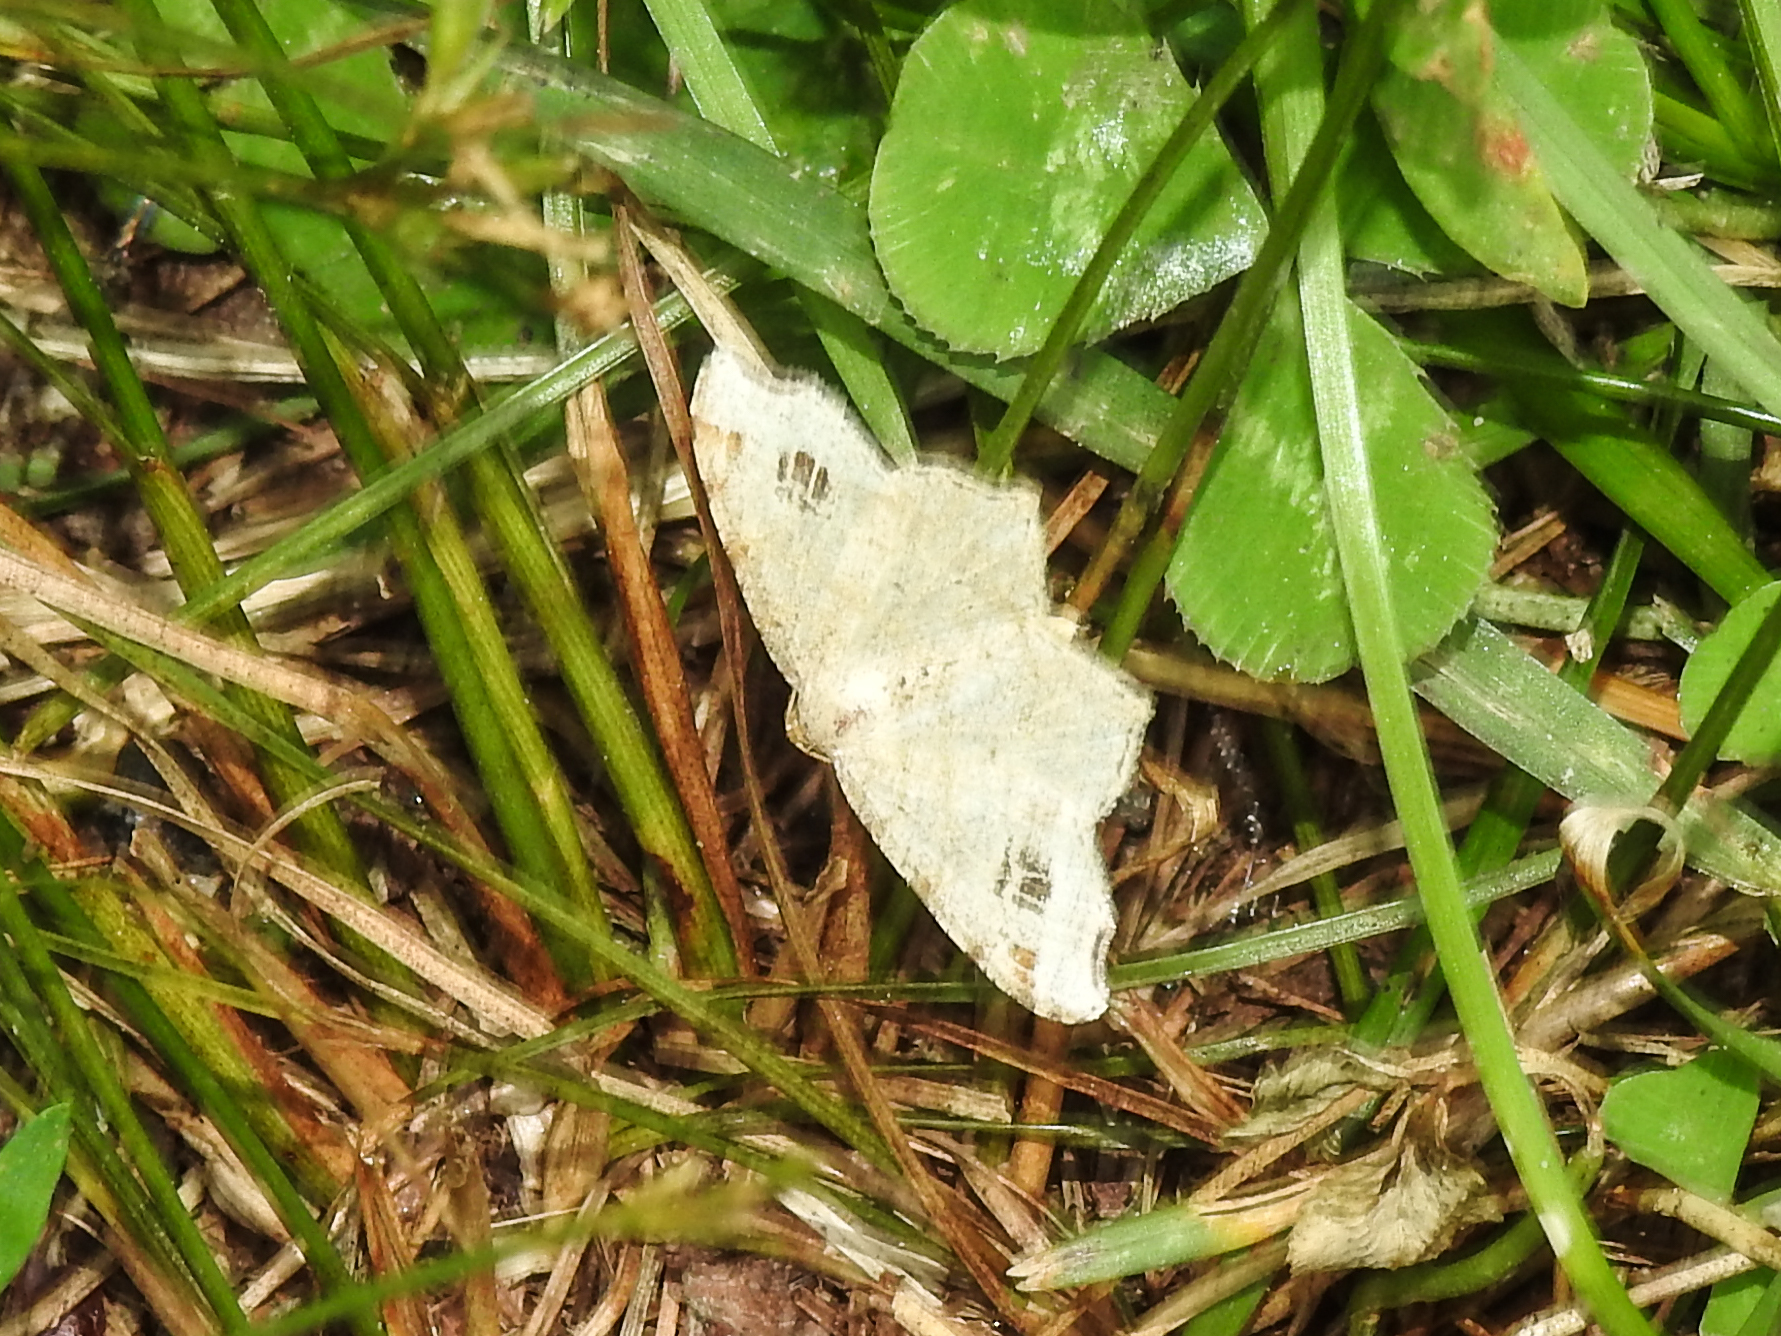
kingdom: Animalia
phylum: Arthropoda
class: Insecta
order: Lepidoptera
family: Geometridae
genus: Macaria
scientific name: Macaria aemulataria
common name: Common angle
